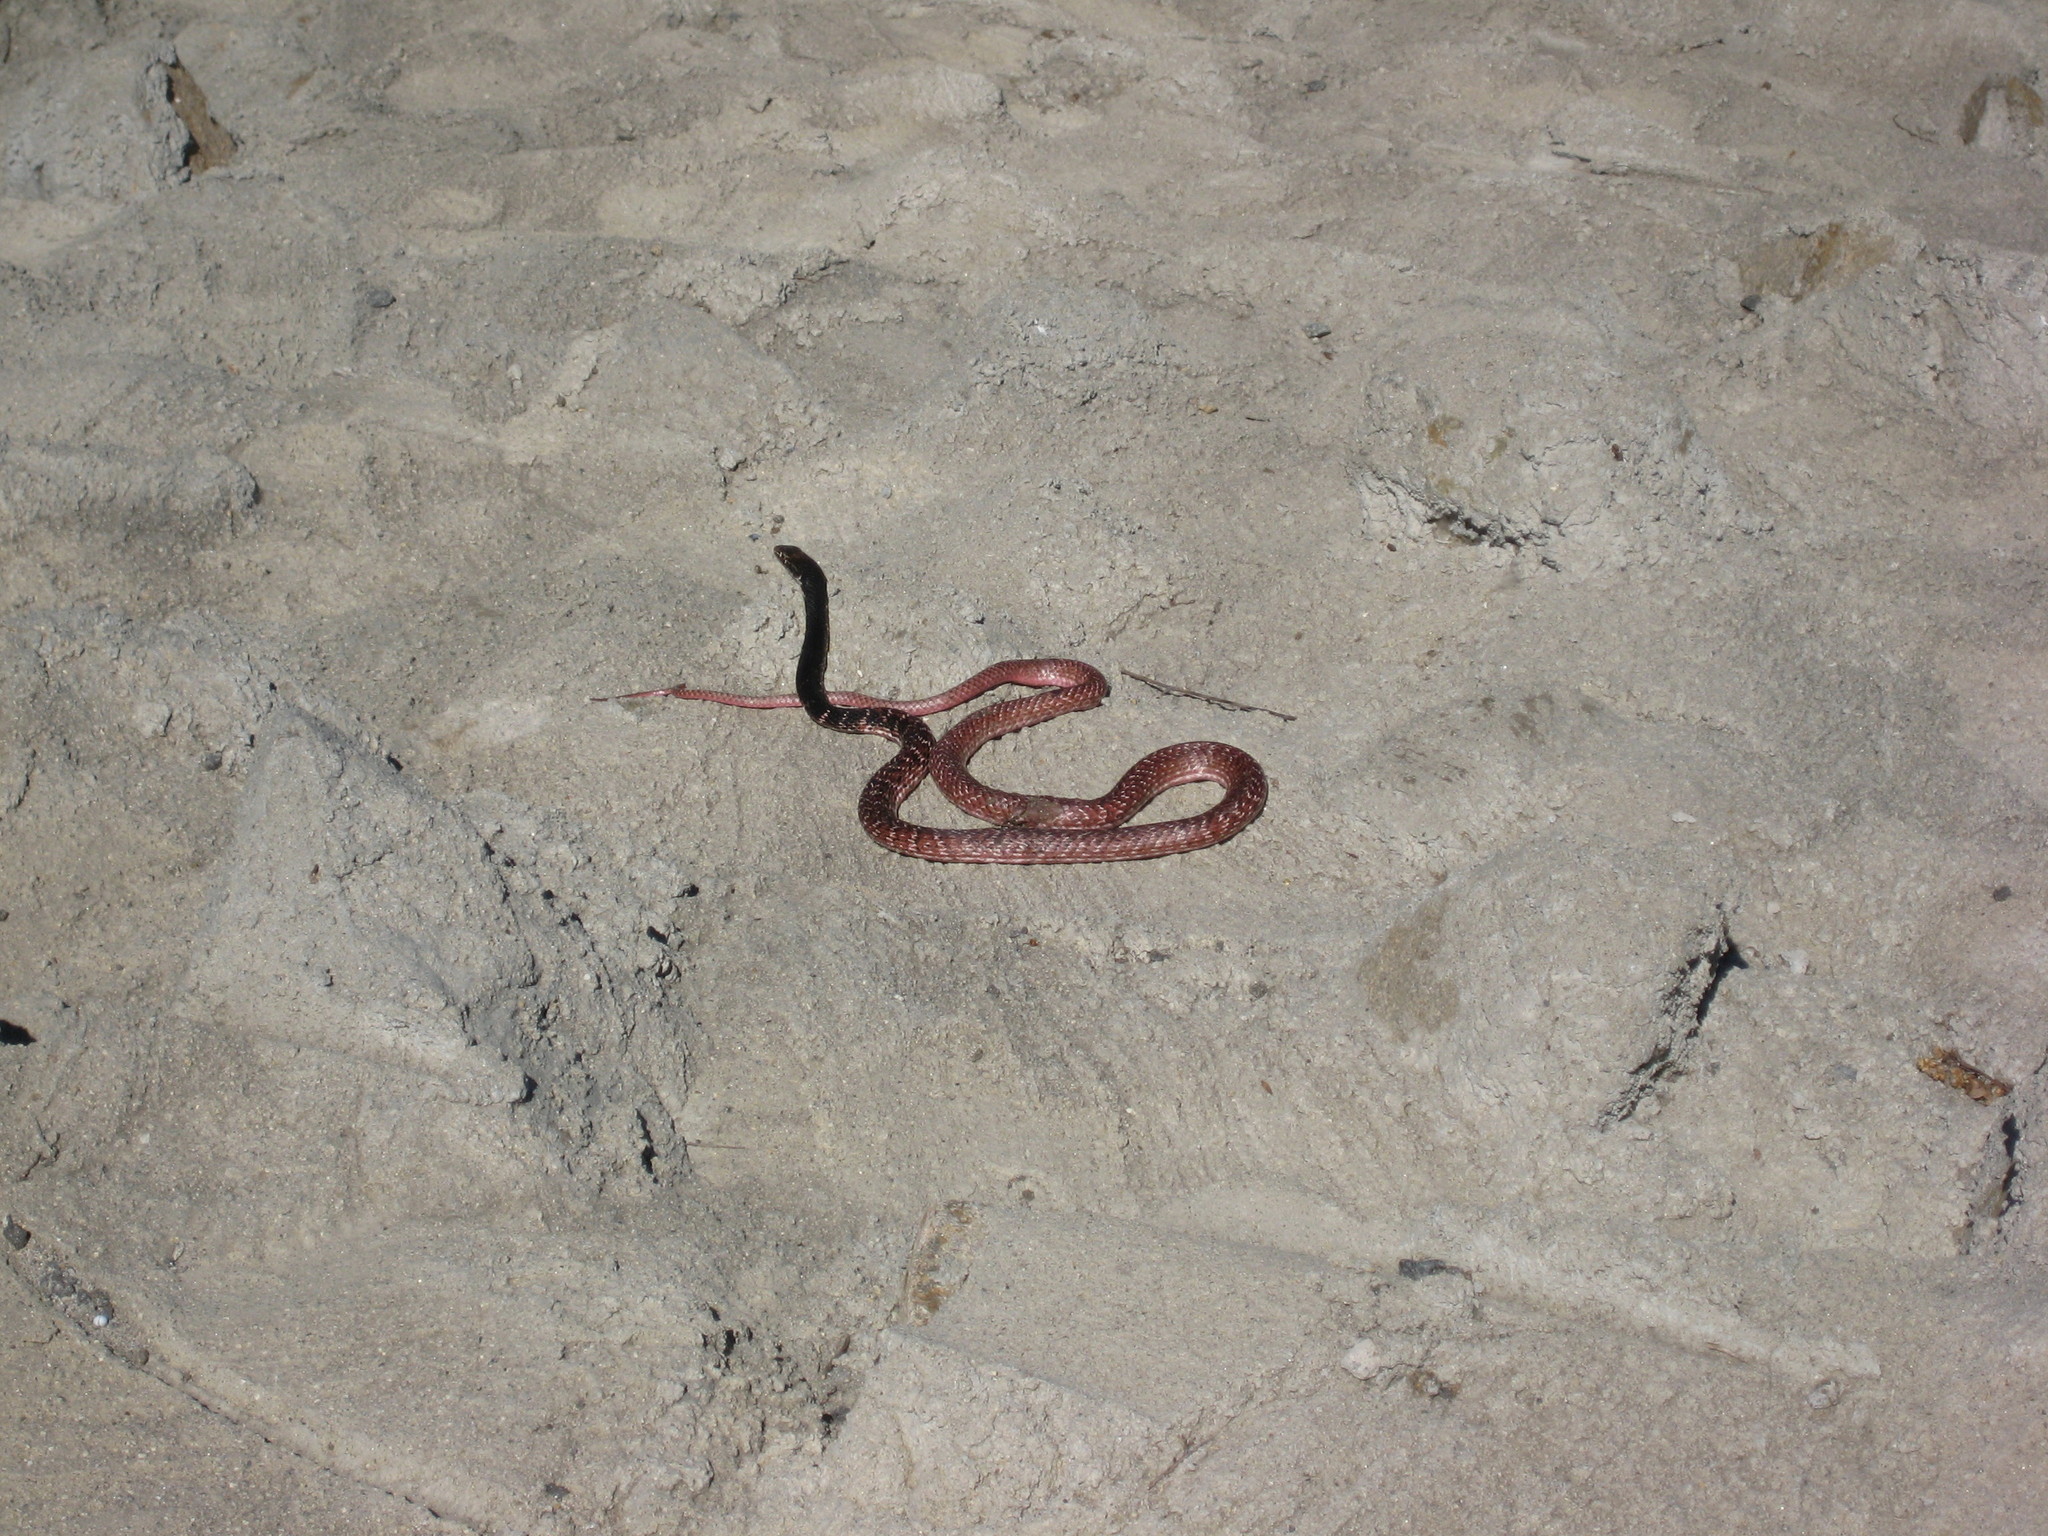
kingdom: Animalia
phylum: Chordata
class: Squamata
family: Colubridae
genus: Masticophis
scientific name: Masticophis flagellum
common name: Coachwhip
